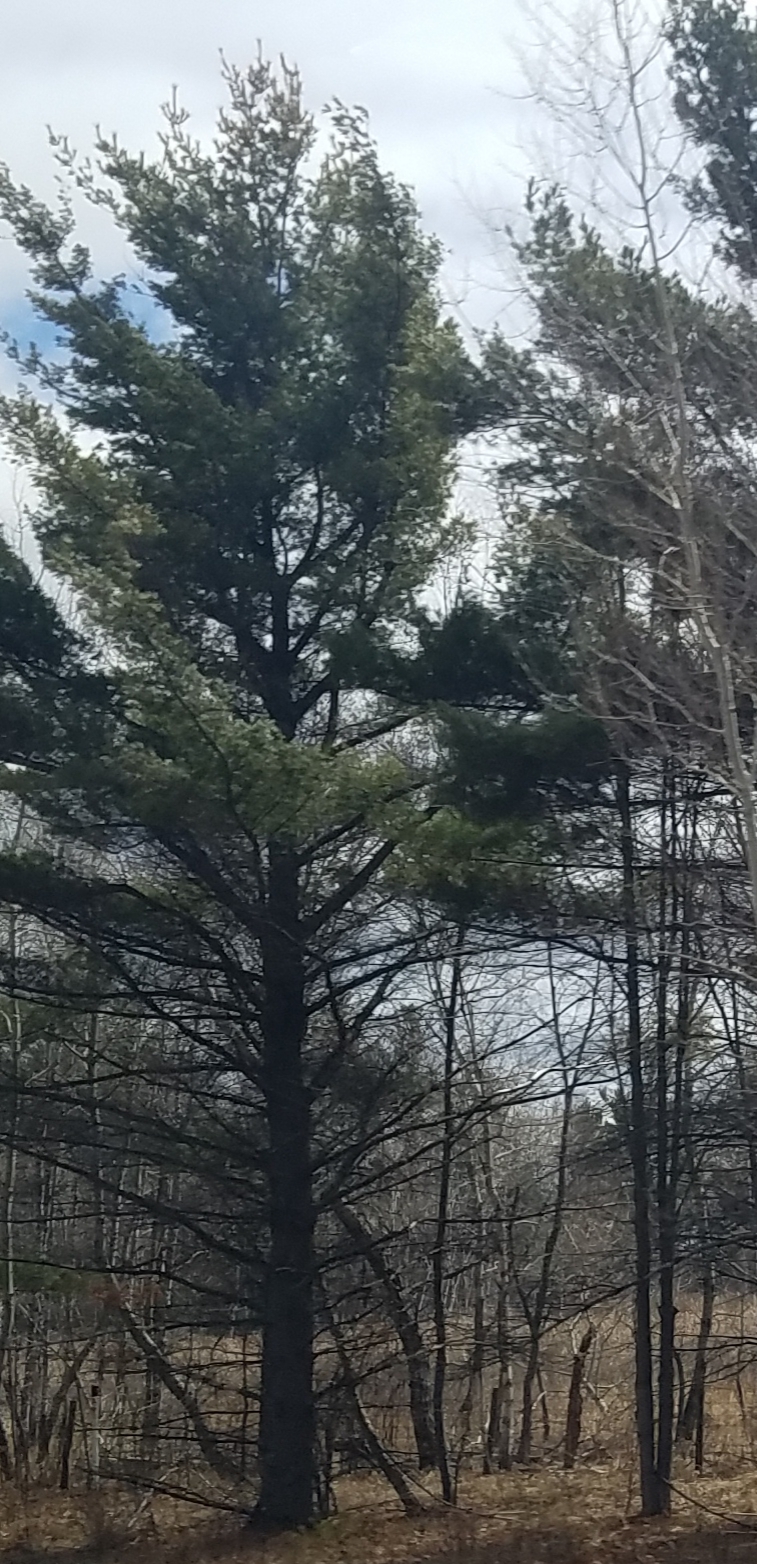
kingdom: Plantae
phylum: Tracheophyta
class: Pinopsida
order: Pinales
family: Pinaceae
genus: Pinus
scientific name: Pinus strobus
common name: Weymouth pine
